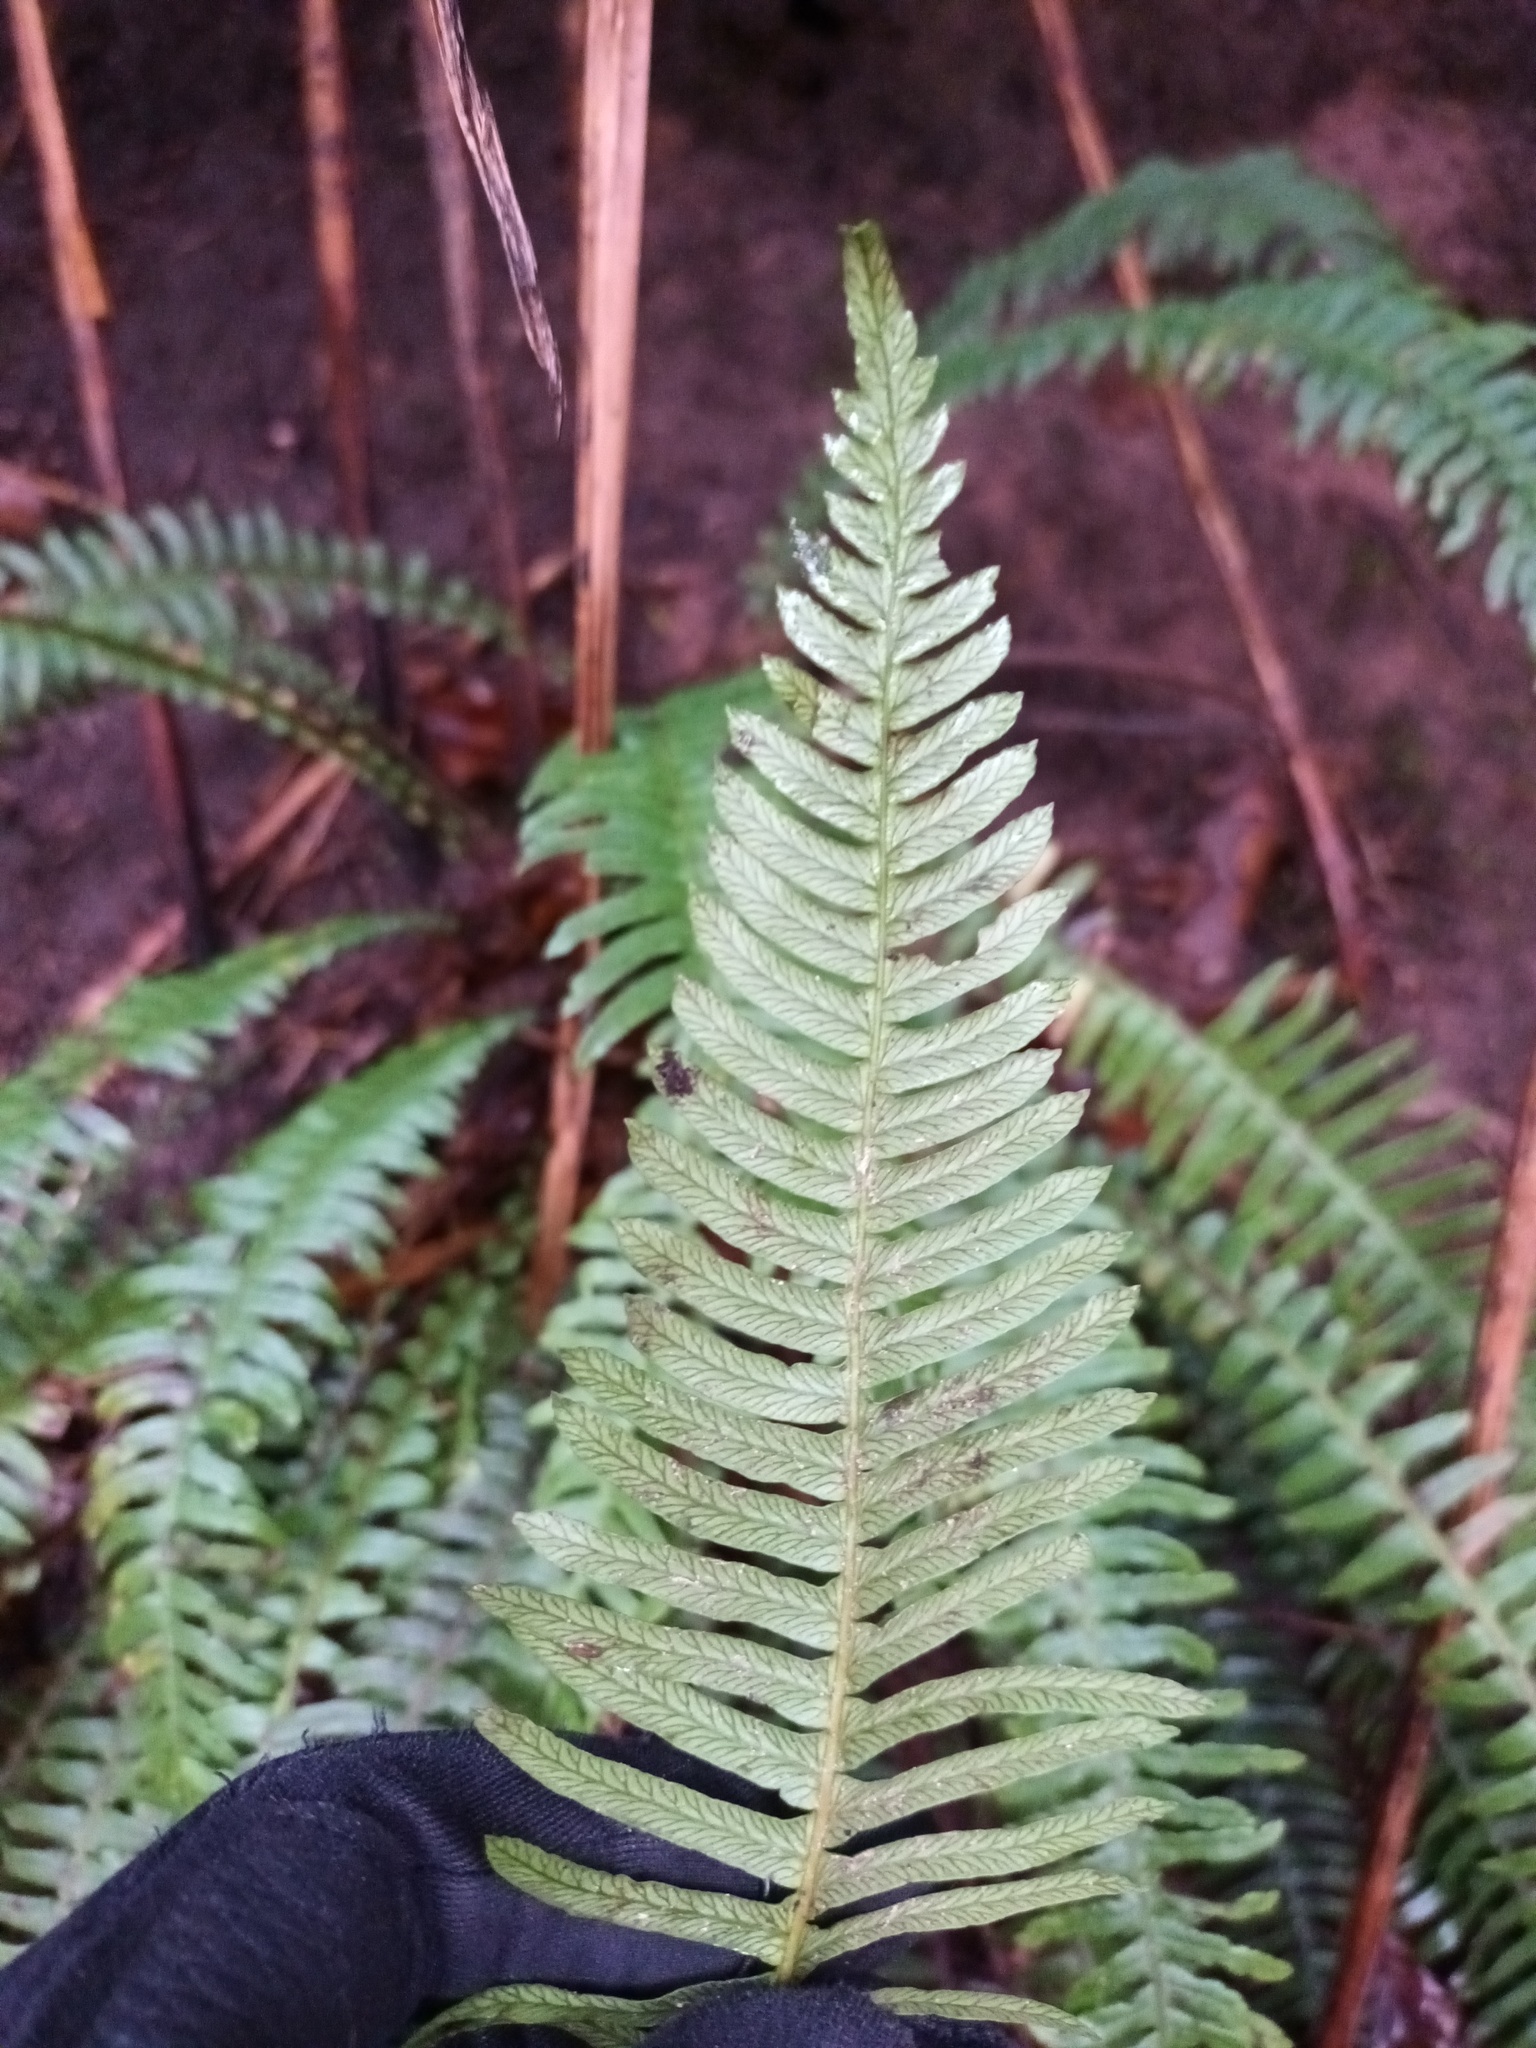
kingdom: Plantae
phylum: Tracheophyta
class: Polypodiopsida
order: Polypodiales
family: Blechnaceae
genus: Struthiopteris
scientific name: Struthiopteris spicant
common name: Deer fern
